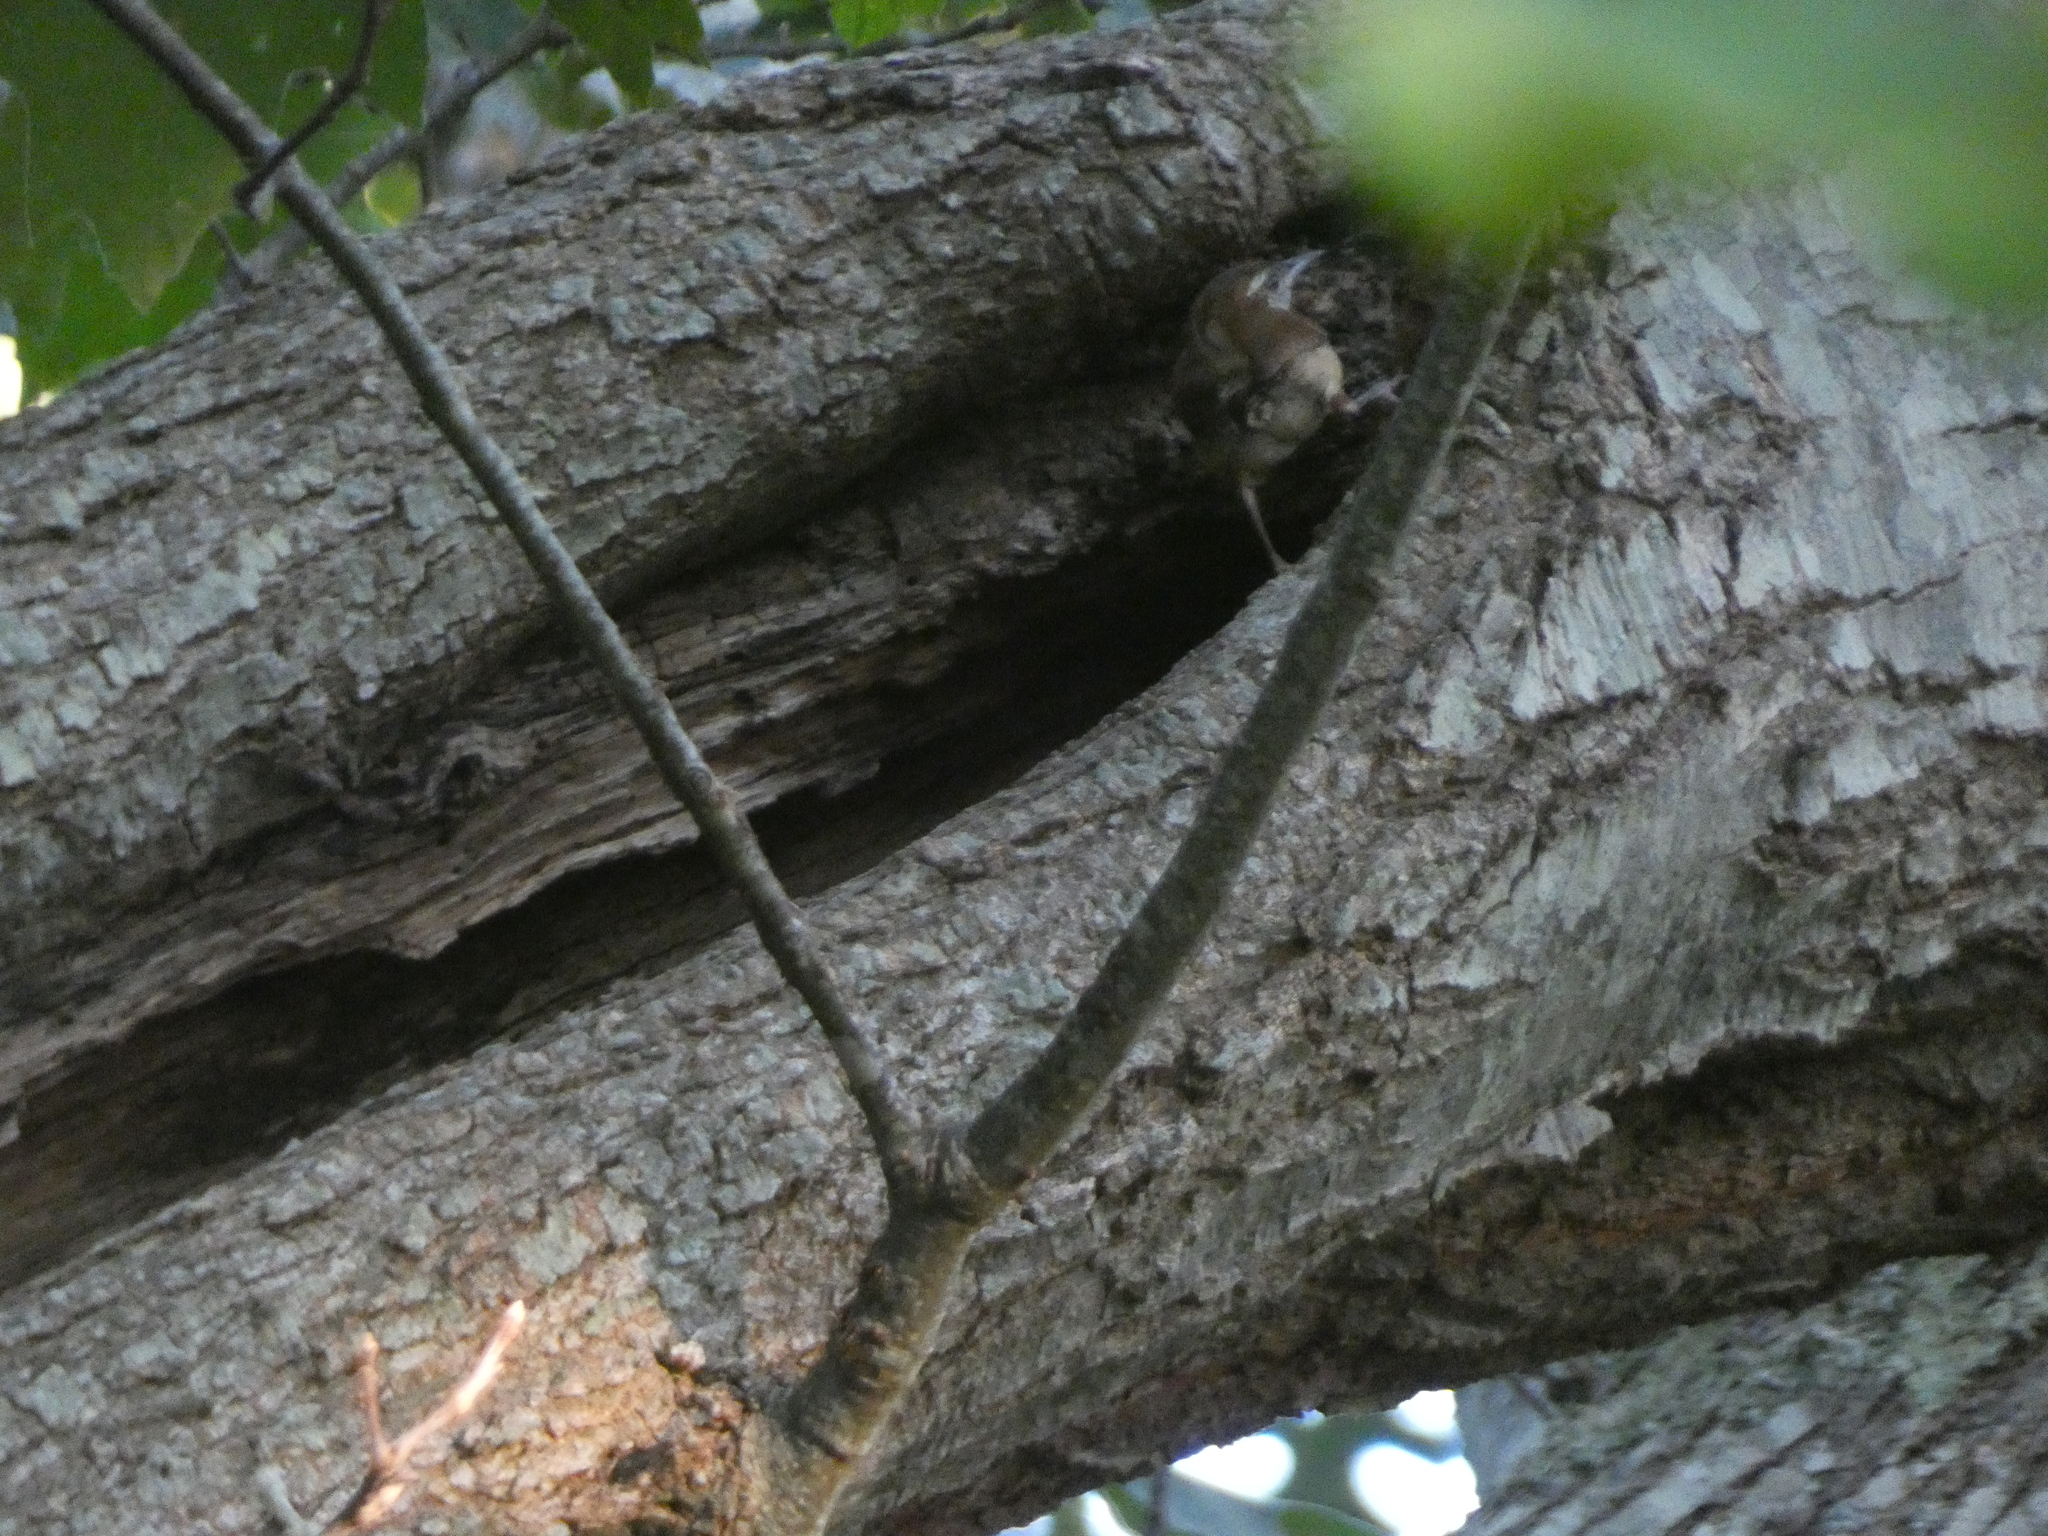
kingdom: Animalia
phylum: Chordata
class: Aves
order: Passeriformes
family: Troglodytidae
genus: Thryothorus
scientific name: Thryothorus ludovicianus
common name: Carolina wren
